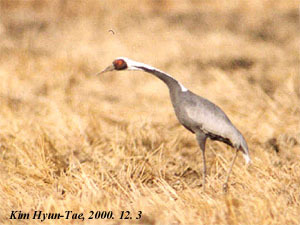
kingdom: Animalia
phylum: Chordata
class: Aves
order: Gruiformes
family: Gruidae
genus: Grus
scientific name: Grus vipio
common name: White-naped crane
